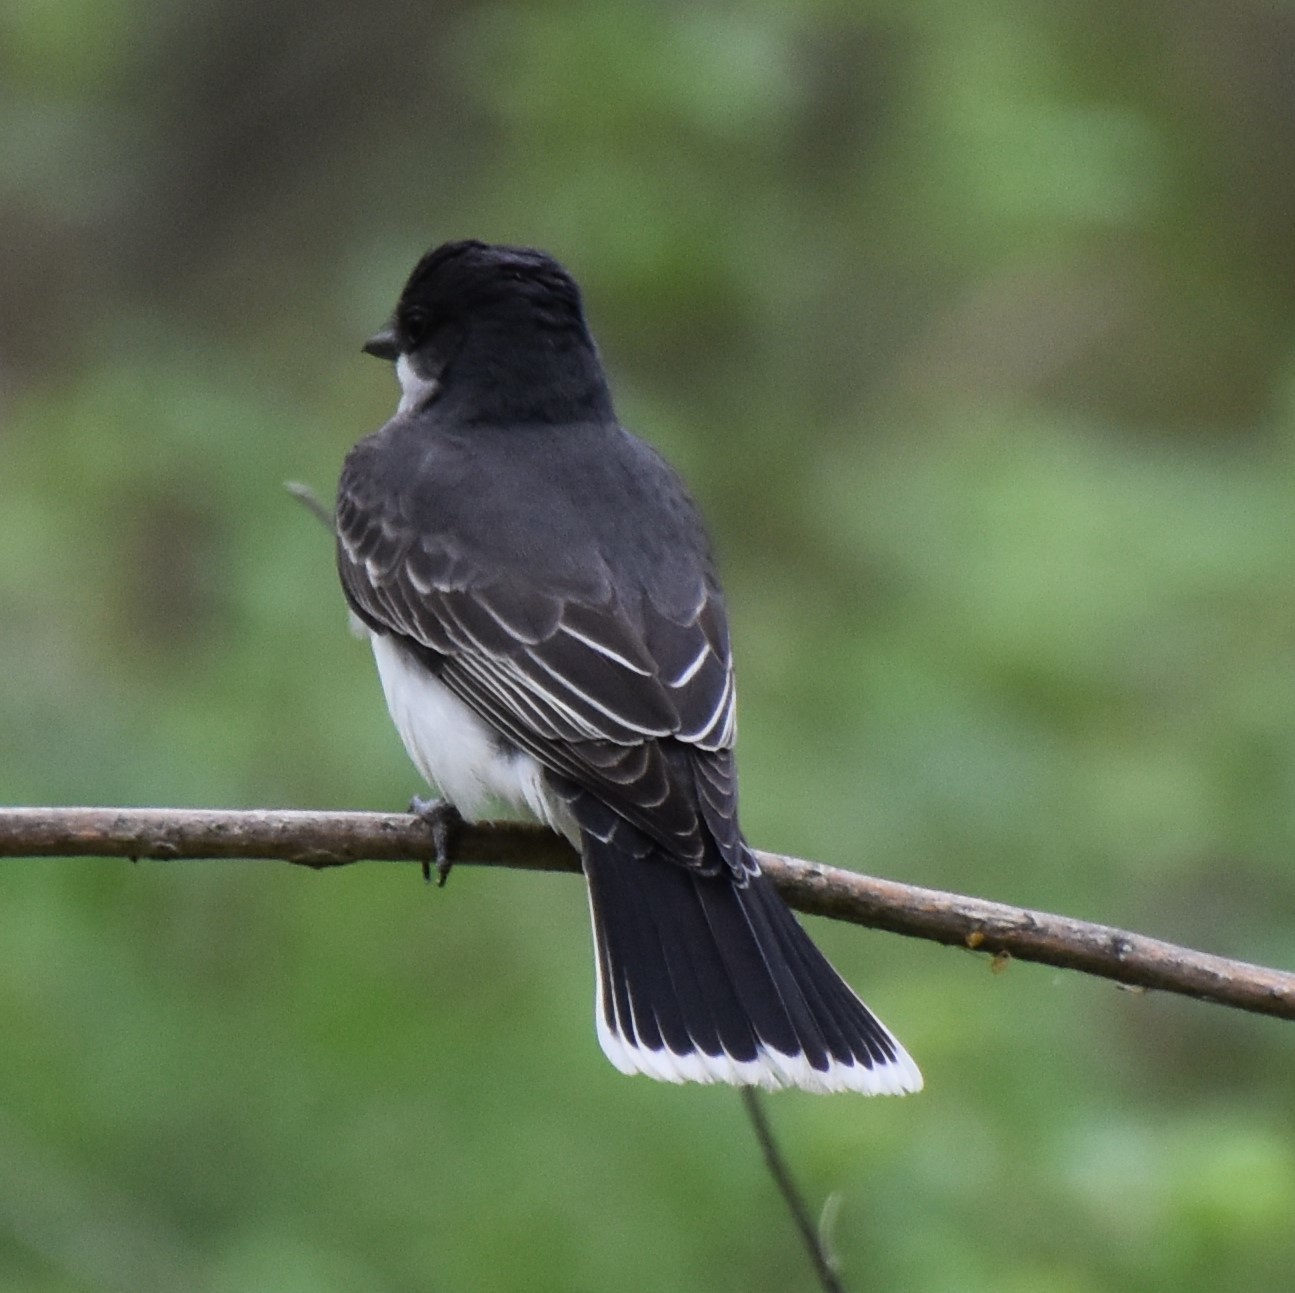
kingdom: Animalia
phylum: Chordata
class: Aves
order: Passeriformes
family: Tyrannidae
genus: Tyrannus
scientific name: Tyrannus tyrannus
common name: Eastern kingbird
